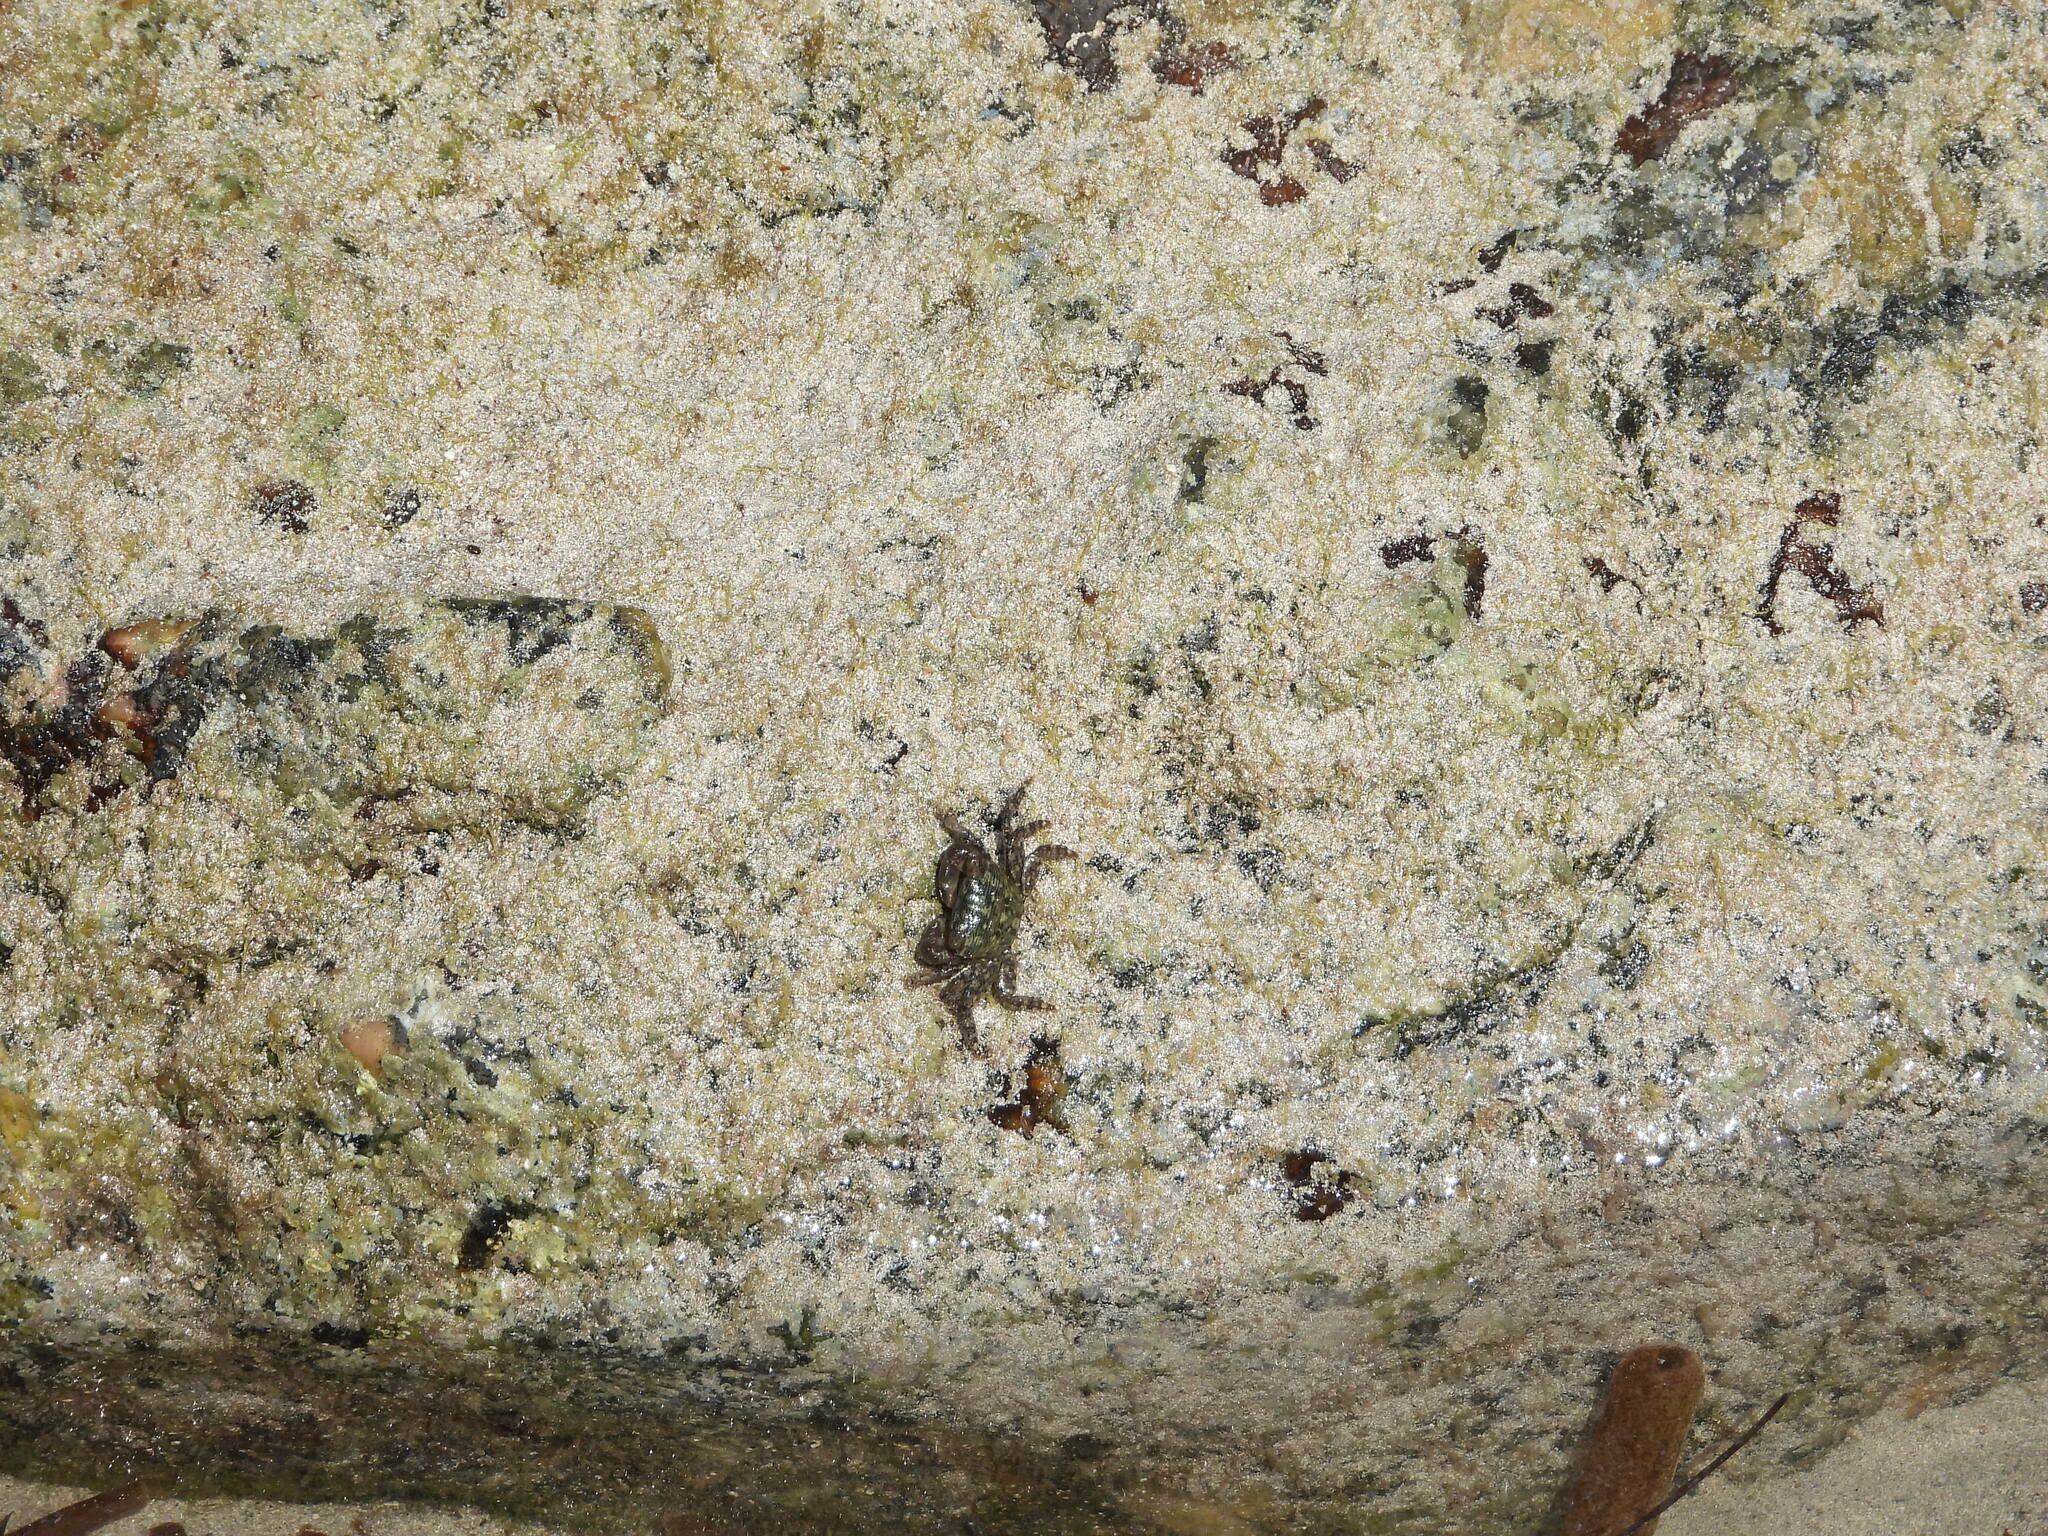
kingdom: Animalia
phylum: Arthropoda
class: Malacostraca
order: Decapoda
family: Grapsidae
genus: Pachygrapsus
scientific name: Pachygrapsus transversus
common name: Mottled shore crab
